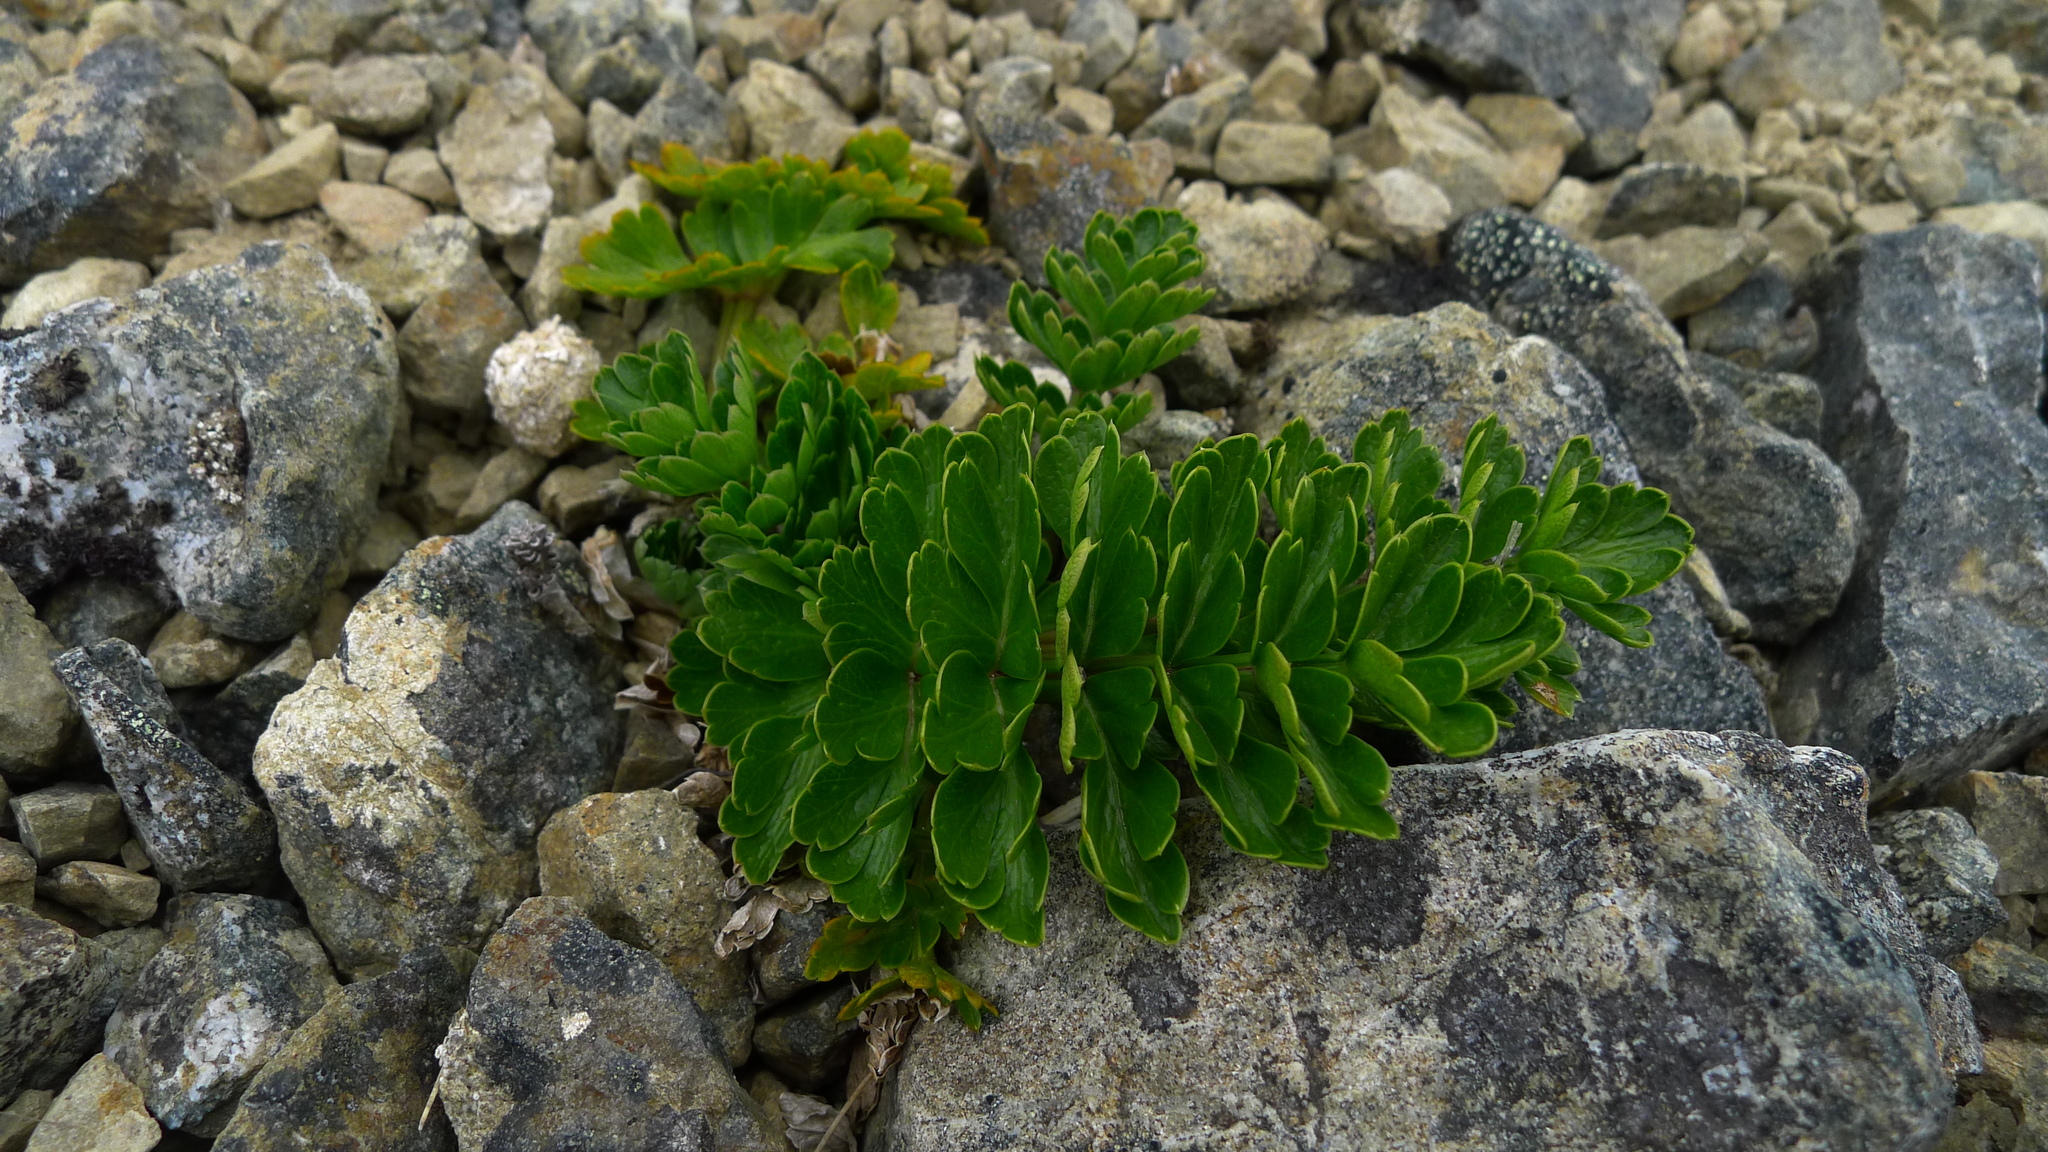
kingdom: Plantae
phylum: Tracheophyta
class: Magnoliopsida
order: Apiales
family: Apiaceae
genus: Anisotome
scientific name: Anisotome pilifera
